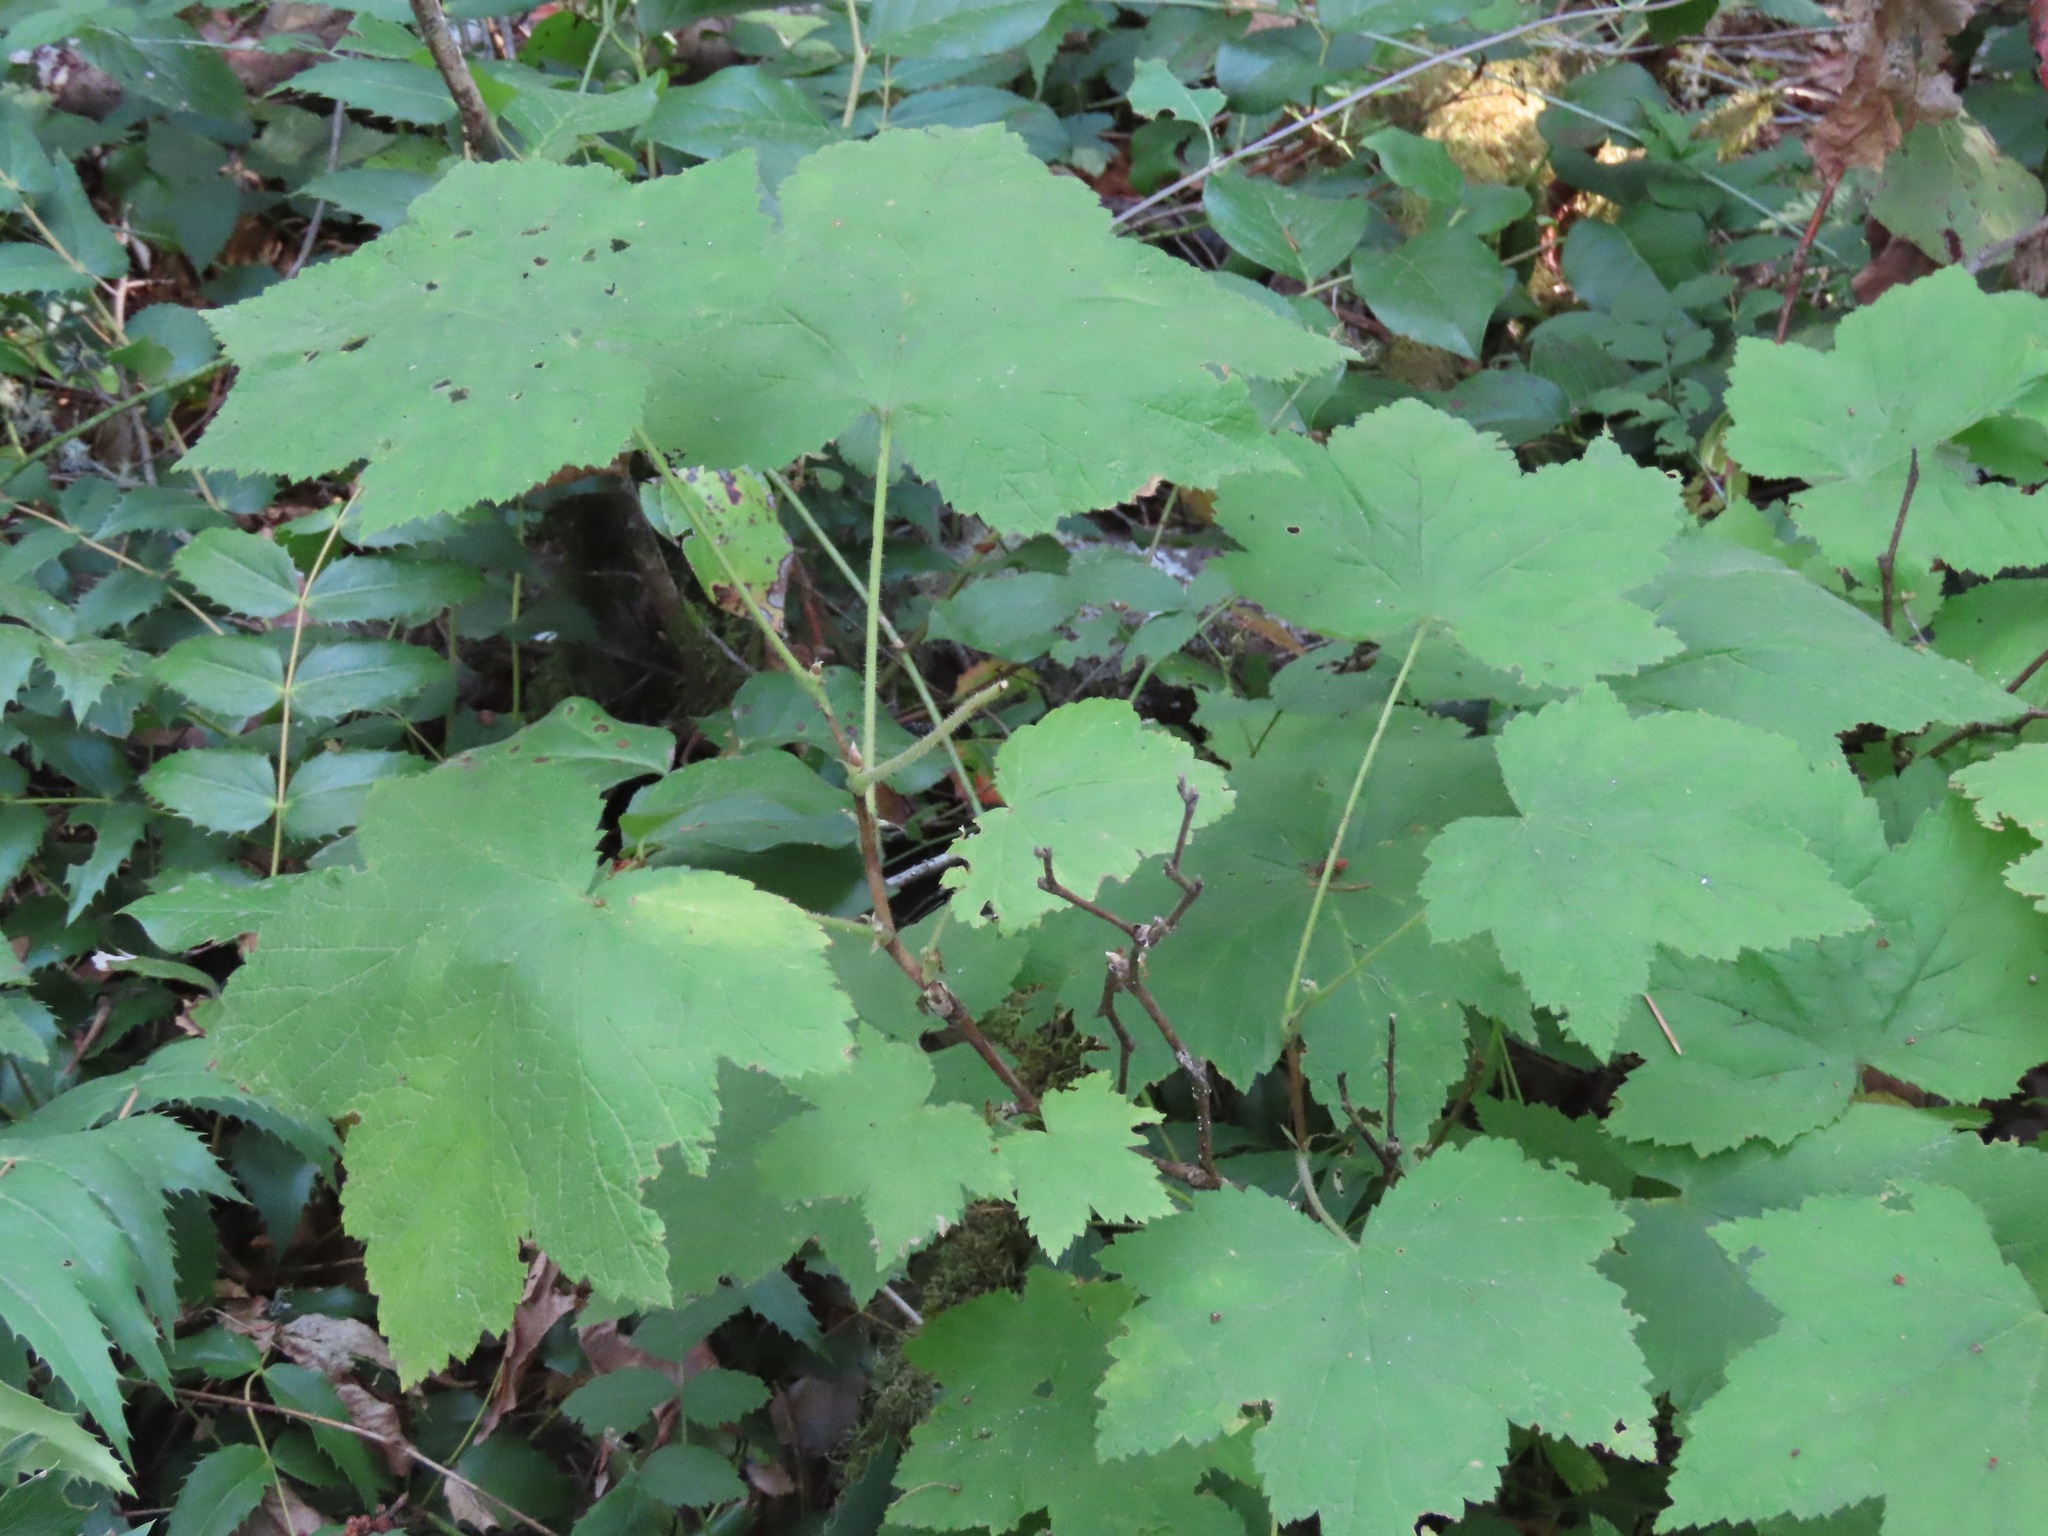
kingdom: Plantae
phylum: Tracheophyta
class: Magnoliopsida
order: Rosales
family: Rosaceae
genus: Rubus
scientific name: Rubus parviflorus
